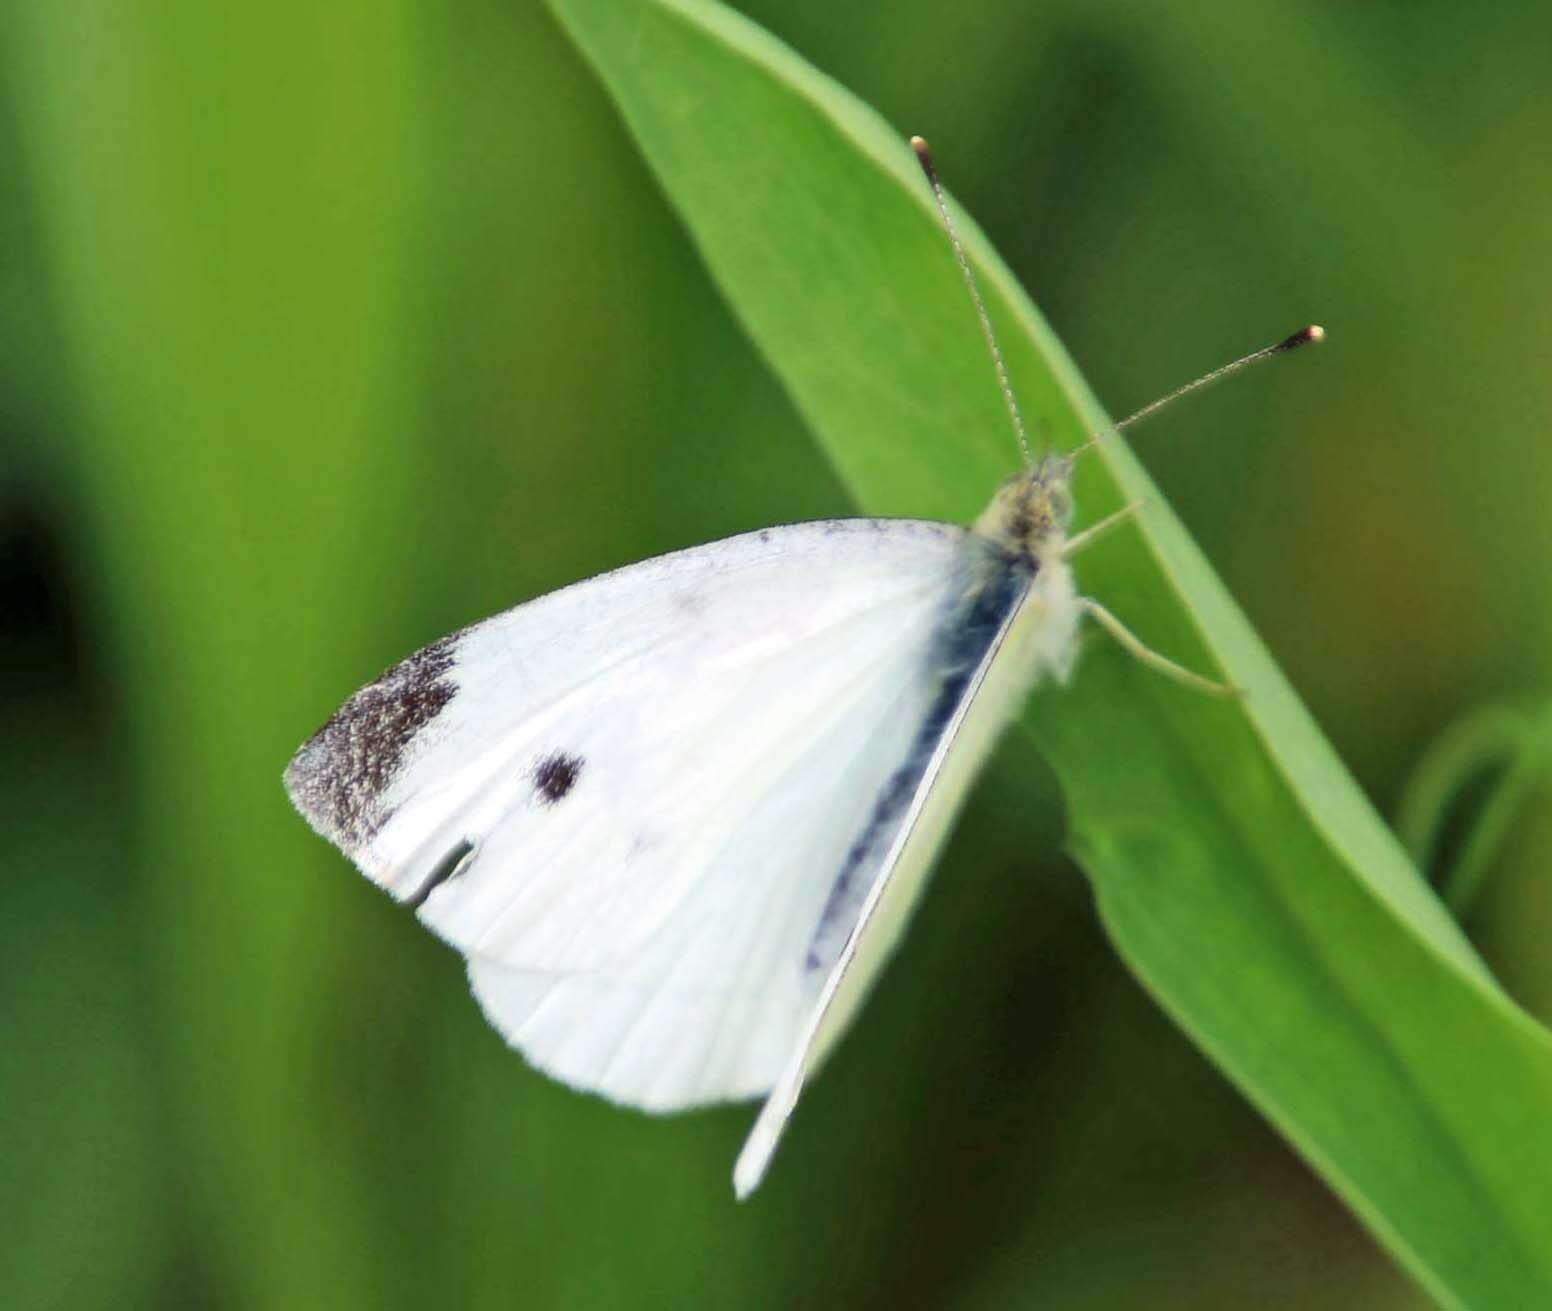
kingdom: Animalia
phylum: Arthropoda
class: Insecta
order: Lepidoptera
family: Pieridae
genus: Pieris
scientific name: Pieris rapae
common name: Small white
